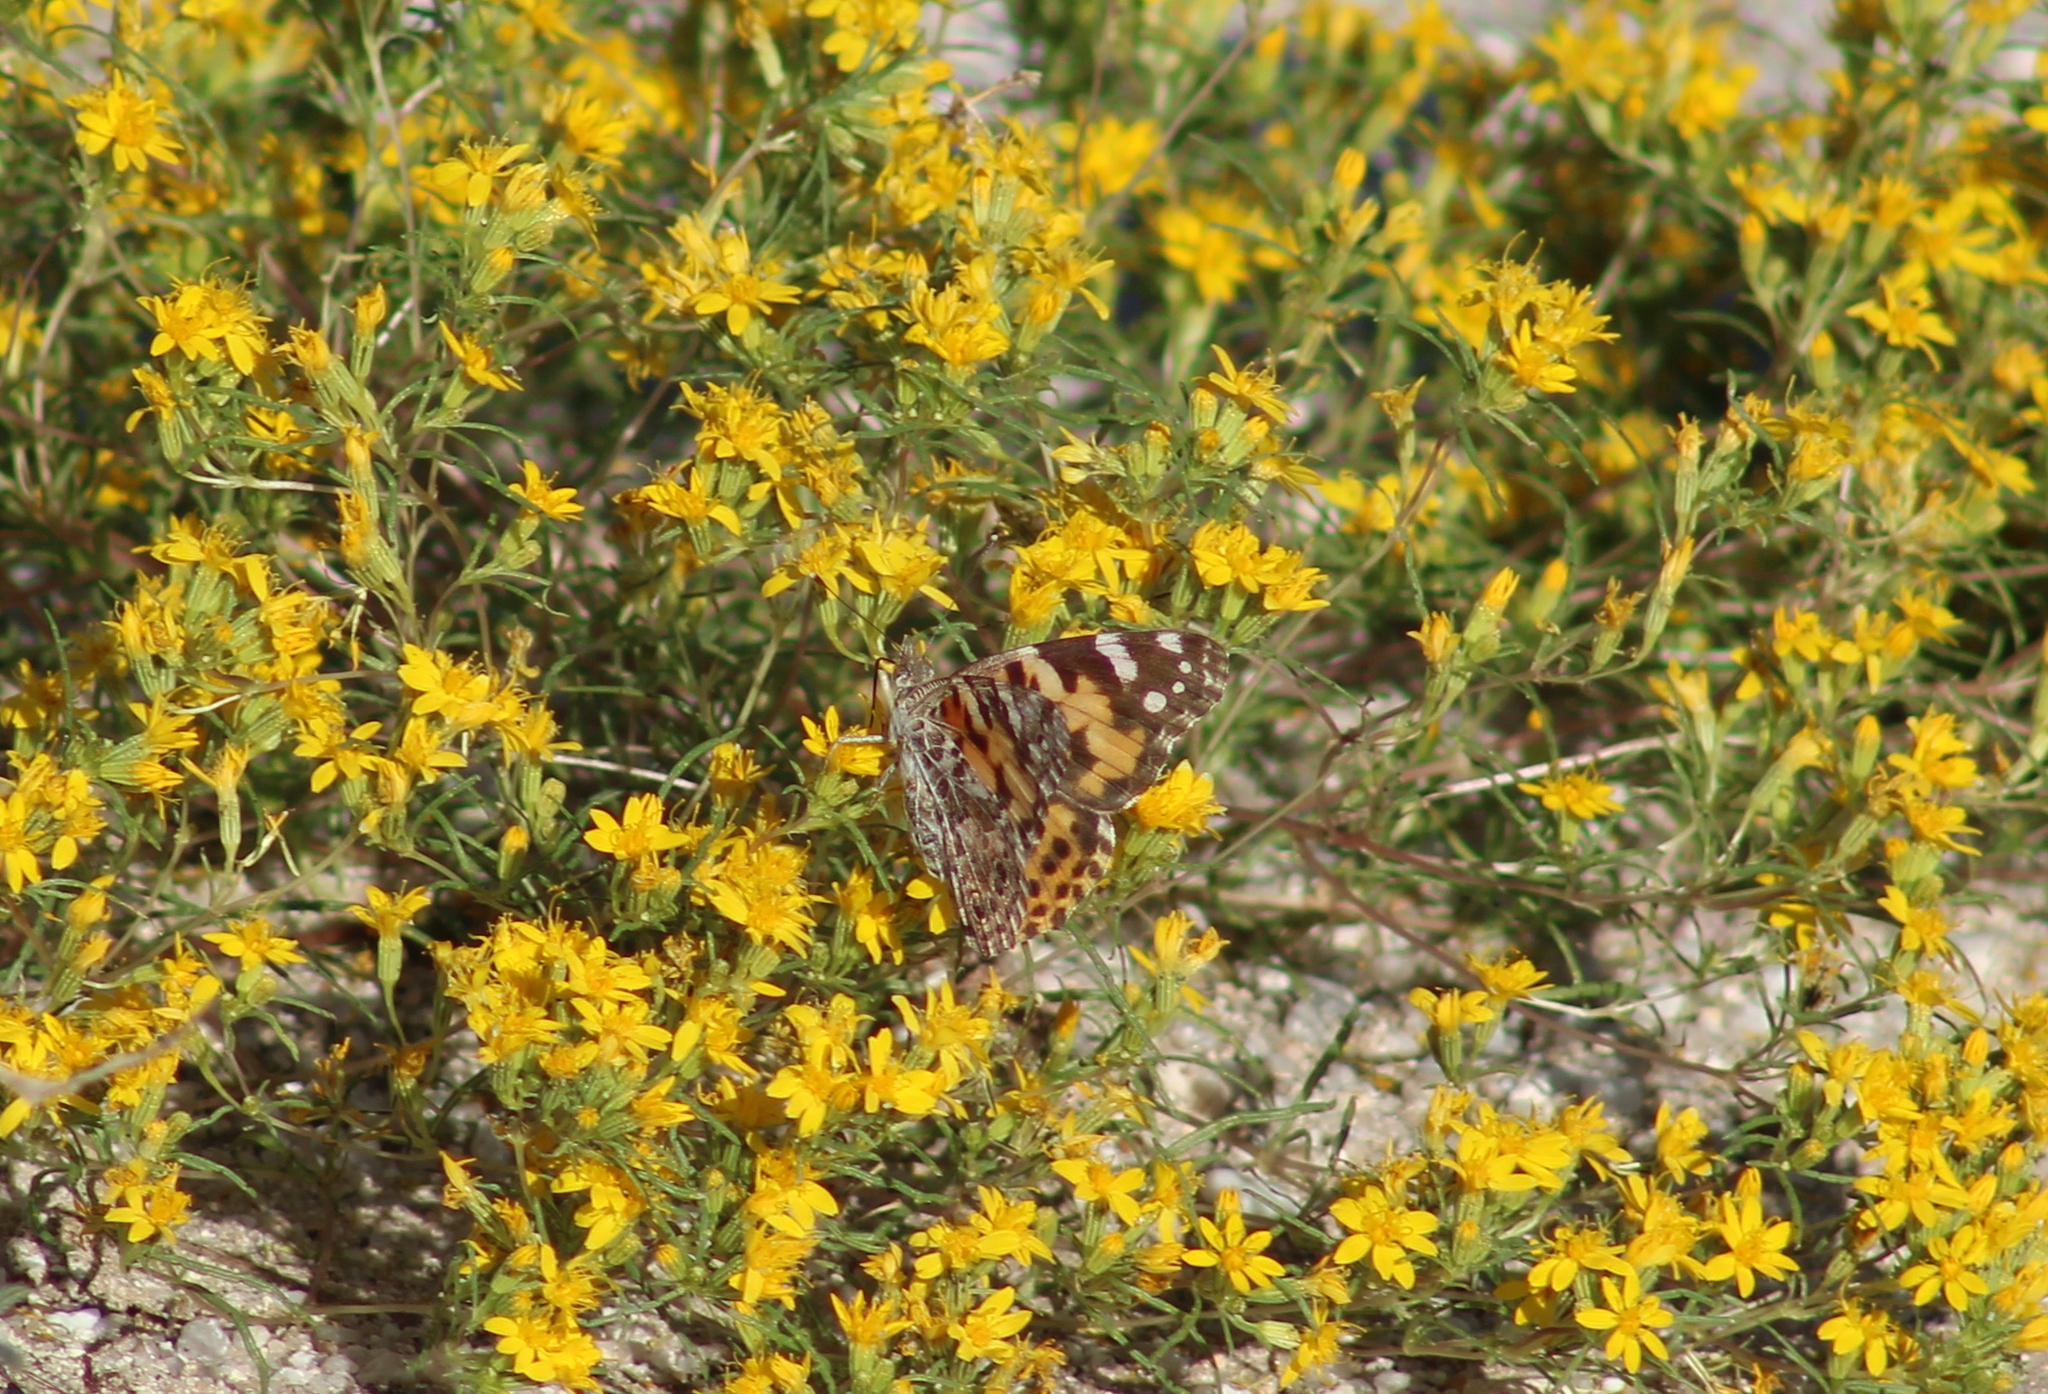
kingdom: Animalia
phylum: Arthropoda
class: Insecta
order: Lepidoptera
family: Nymphalidae
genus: Vanessa
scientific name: Vanessa cardui
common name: Painted lady
